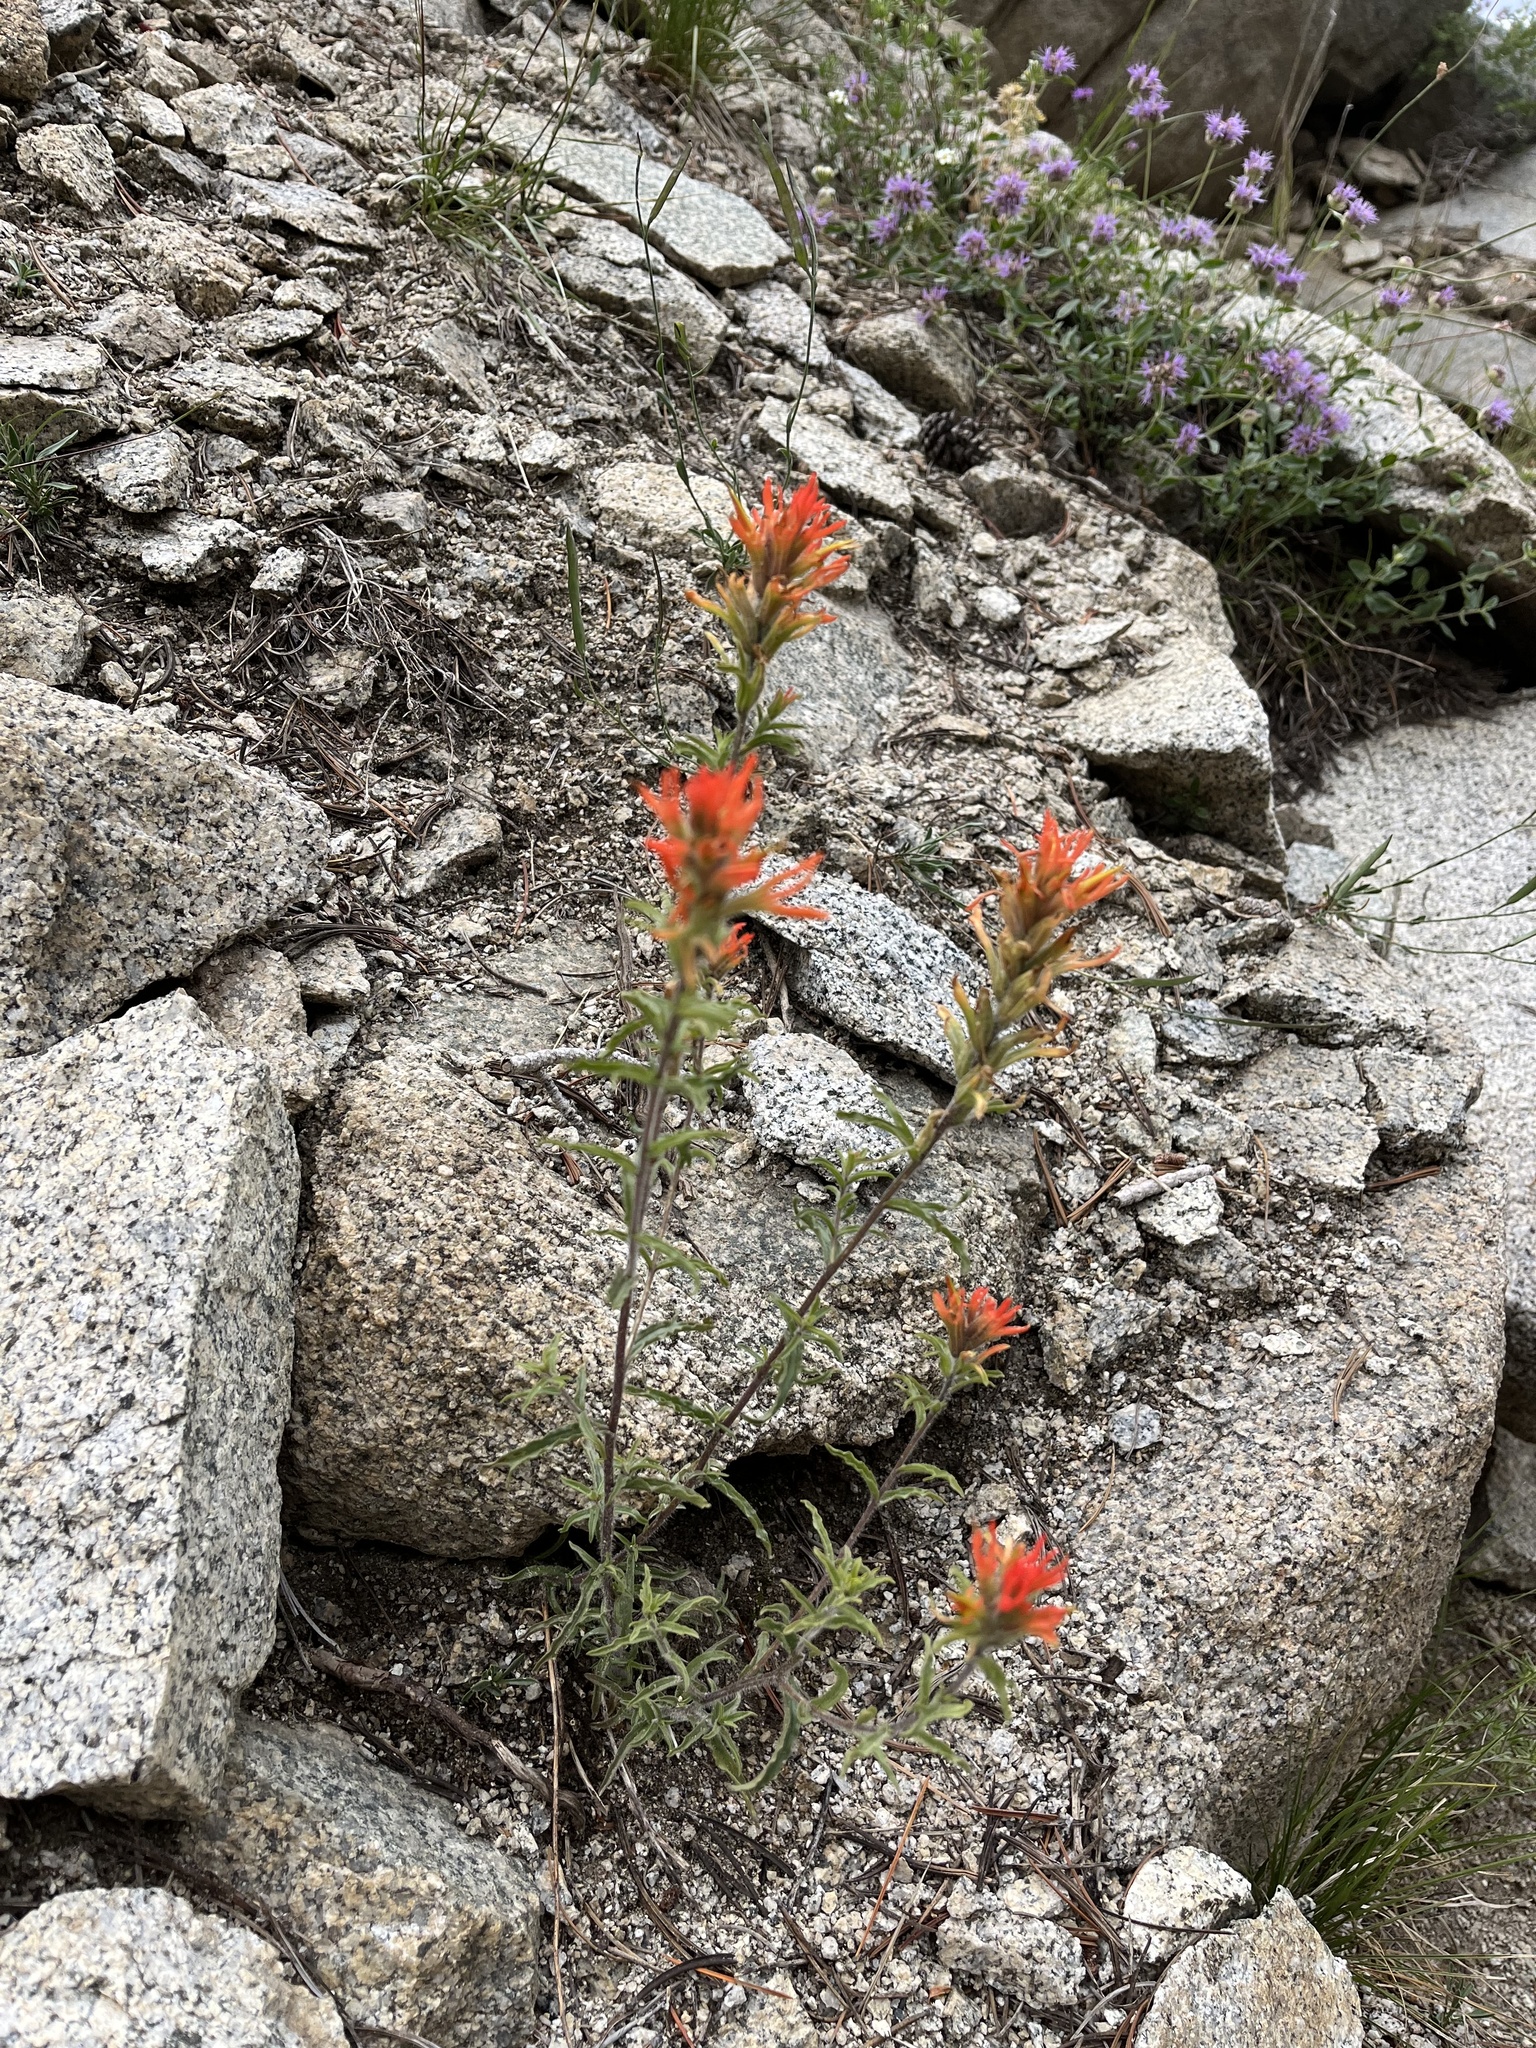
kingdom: Plantae
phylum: Tracheophyta
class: Magnoliopsida
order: Lamiales
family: Orobanchaceae
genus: Castilleja
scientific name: Castilleja applegatei
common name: Wavy-leaf paintbrush
